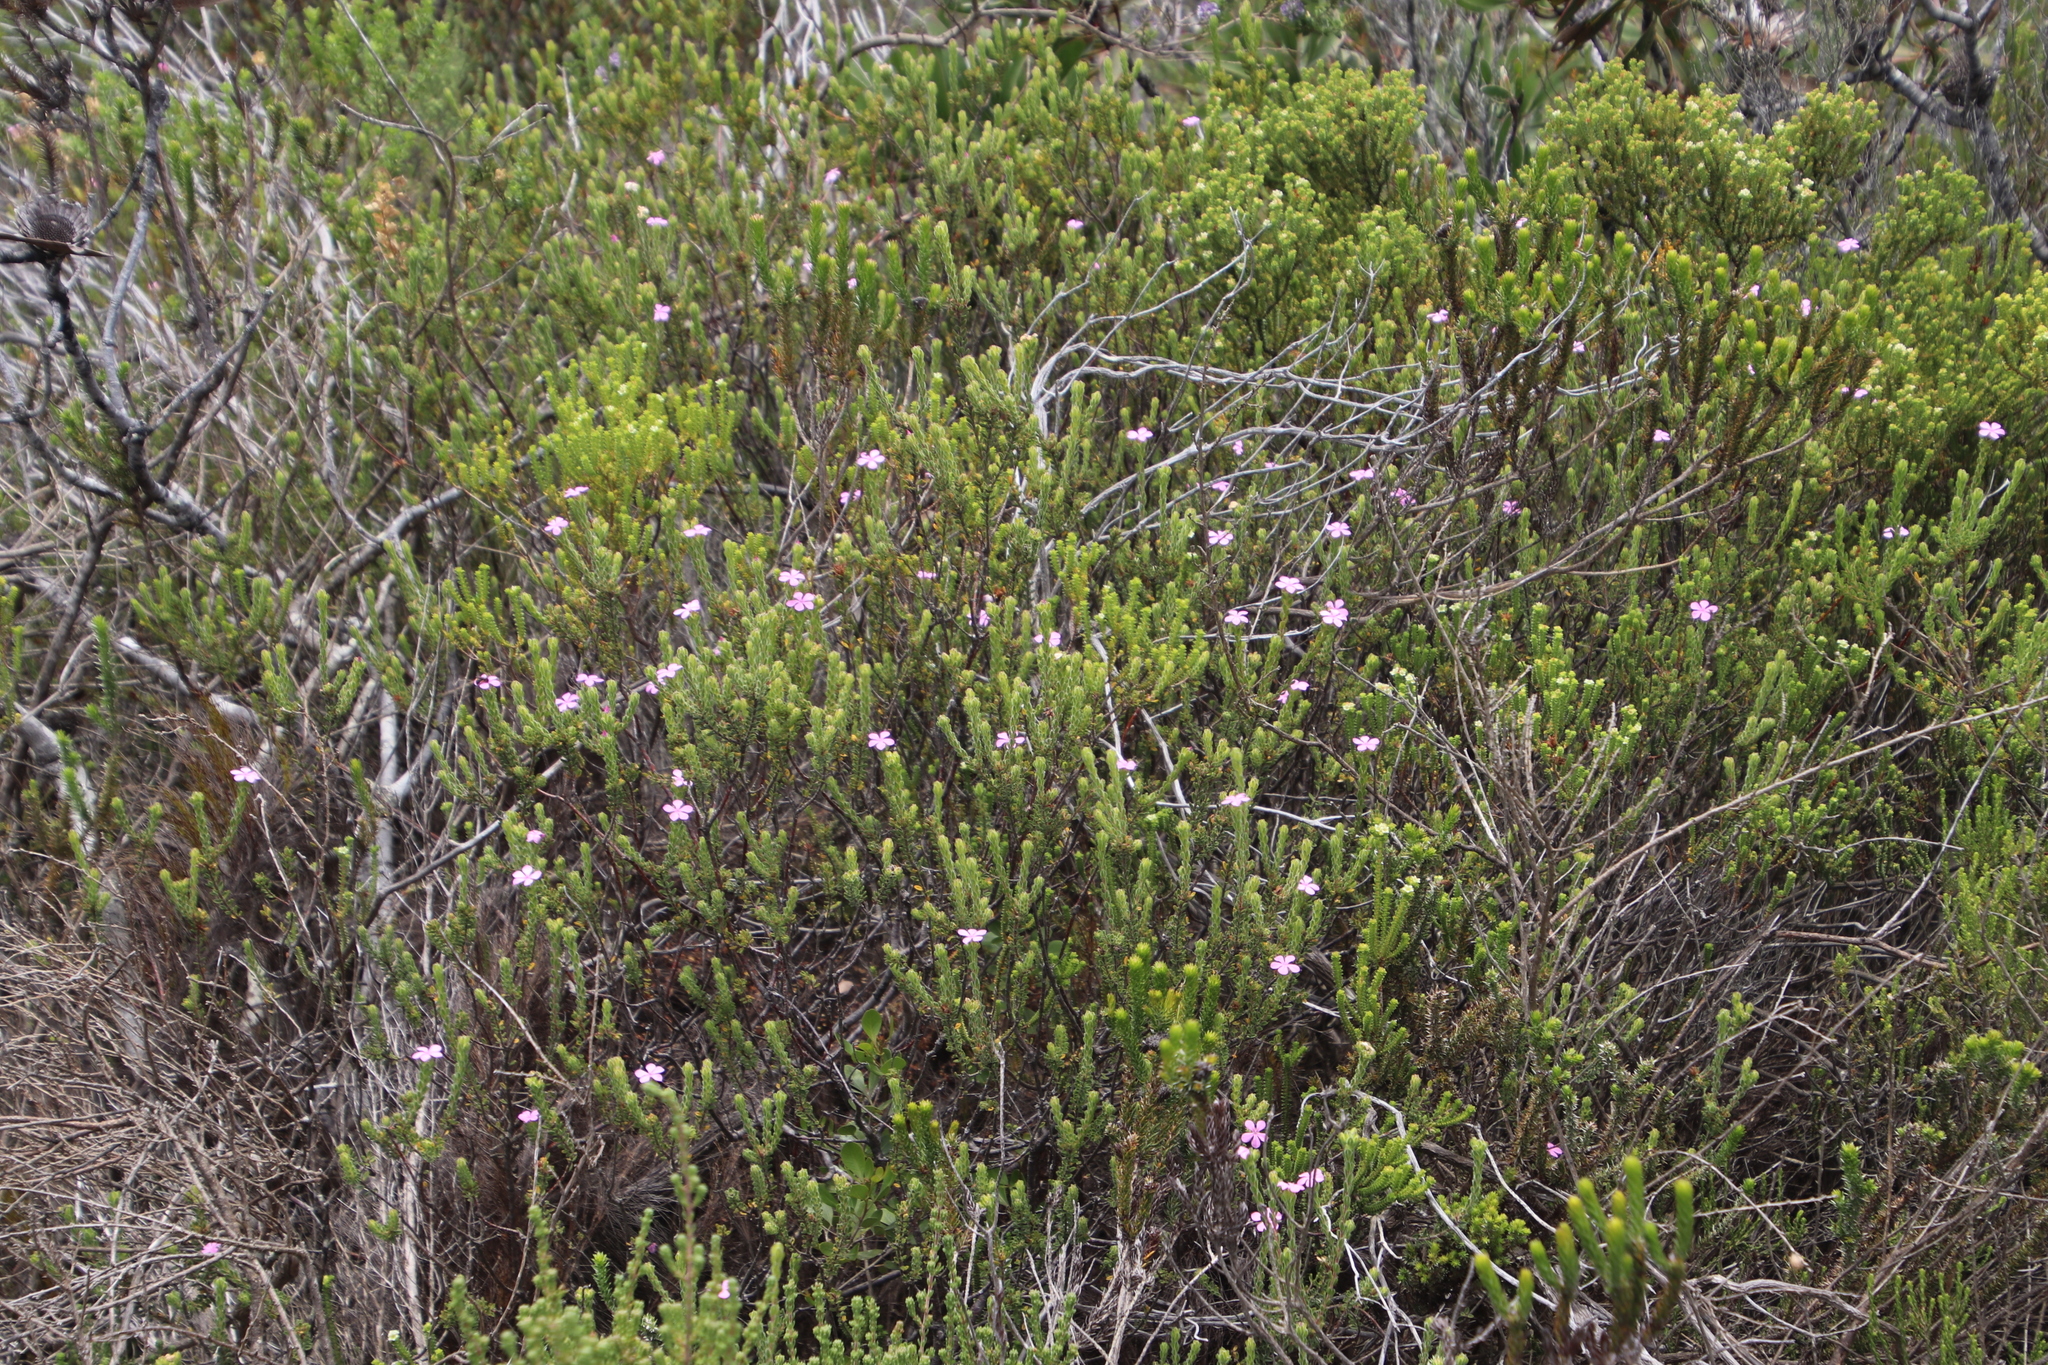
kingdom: Plantae
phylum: Tracheophyta
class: Magnoliopsida
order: Sapindales
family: Rutaceae
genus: Acmadenia
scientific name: Acmadenia mundiana
